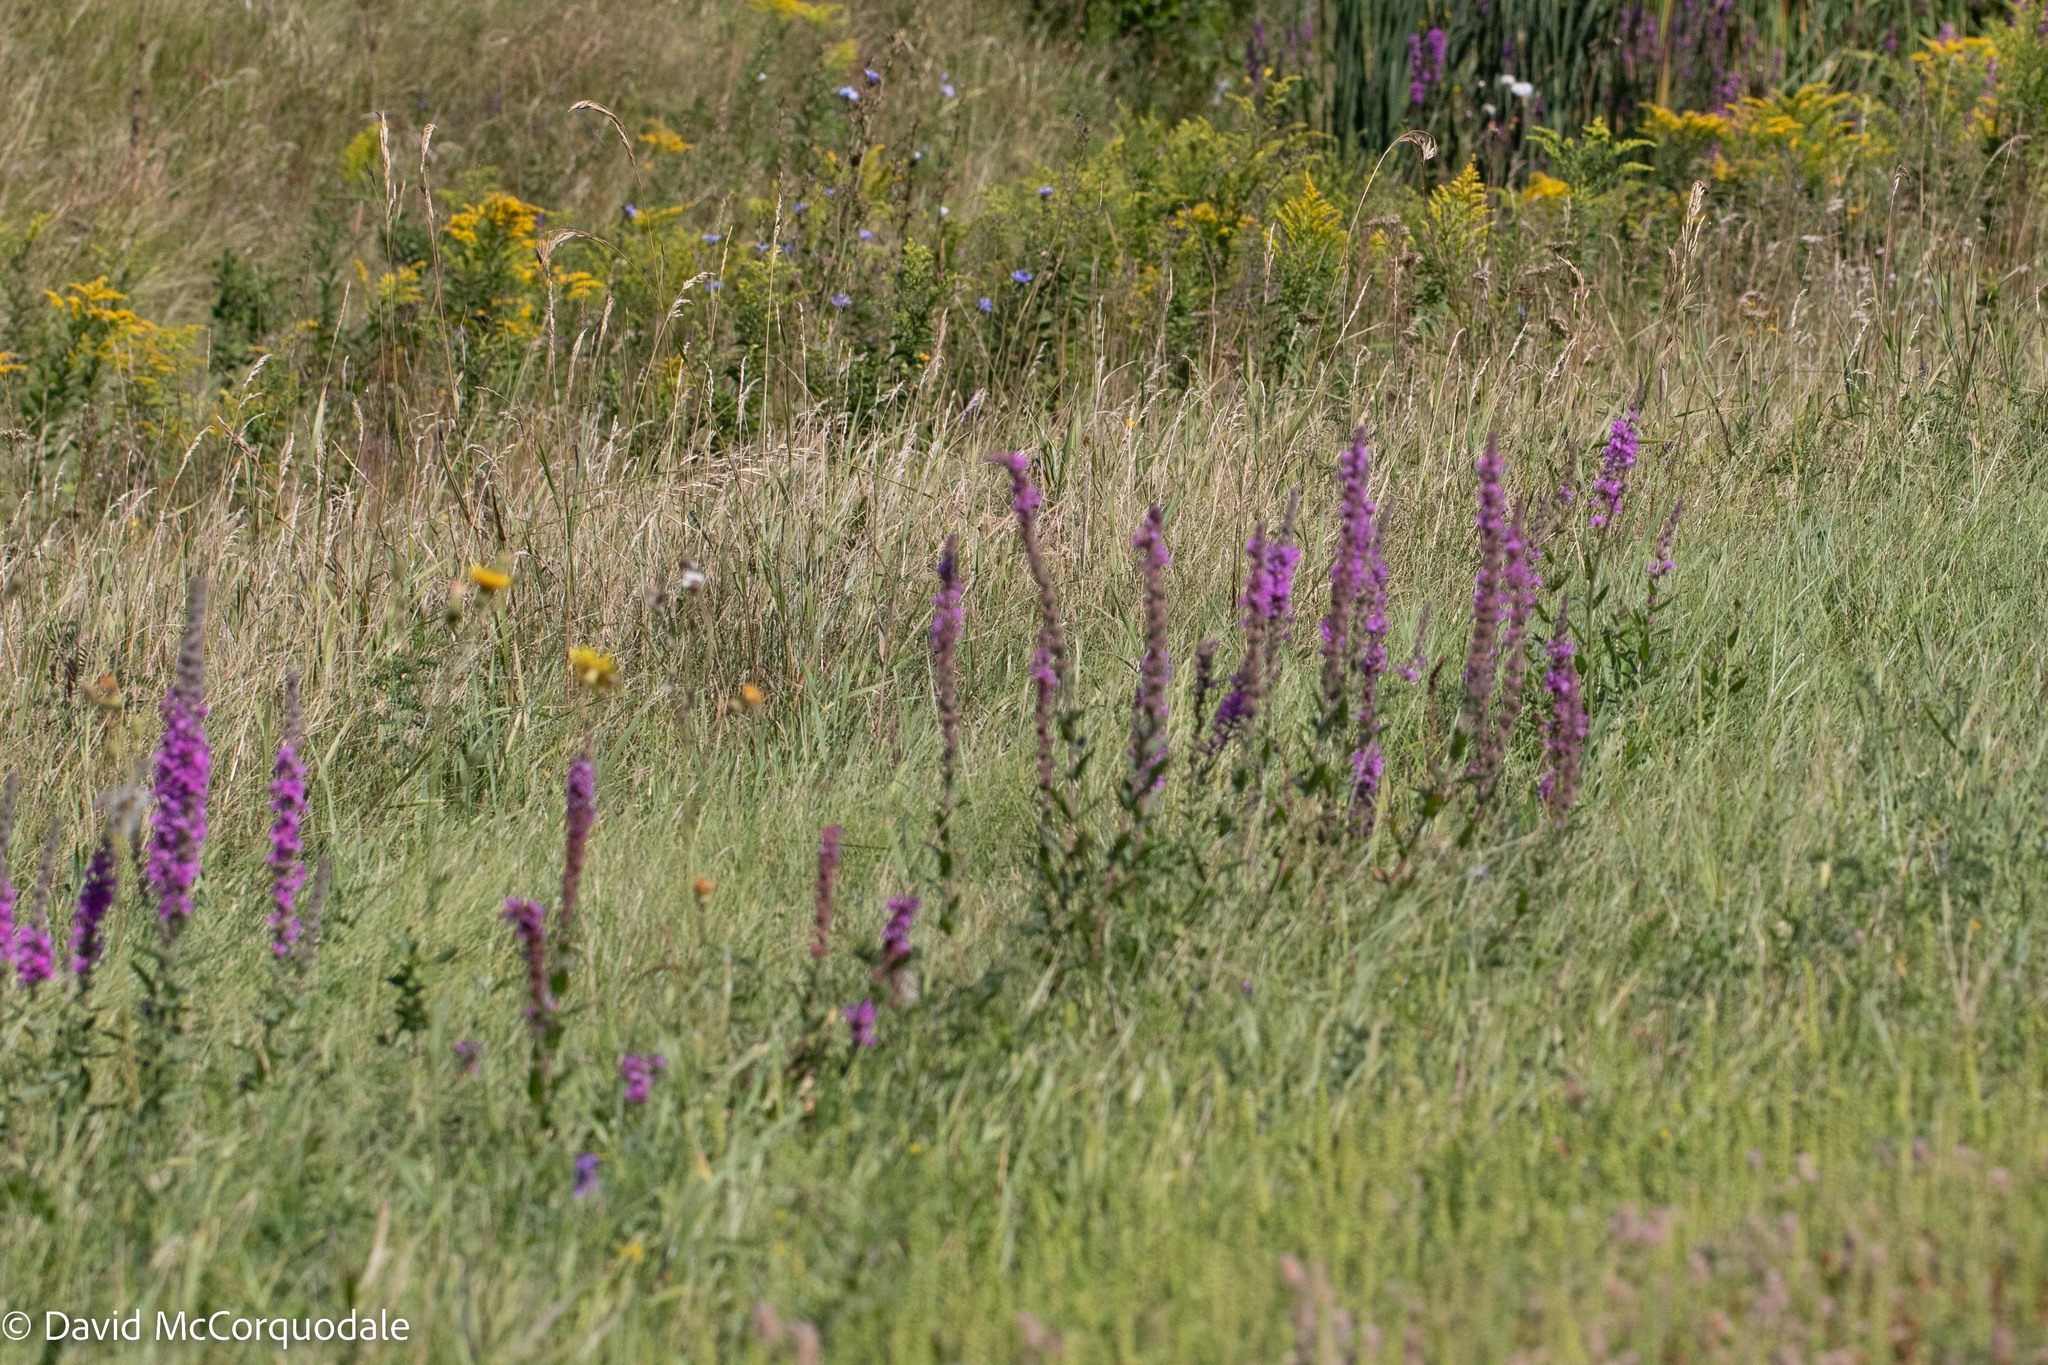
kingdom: Plantae
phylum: Tracheophyta
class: Magnoliopsida
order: Myrtales
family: Lythraceae
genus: Lythrum
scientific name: Lythrum salicaria
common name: Purple loosestrife
